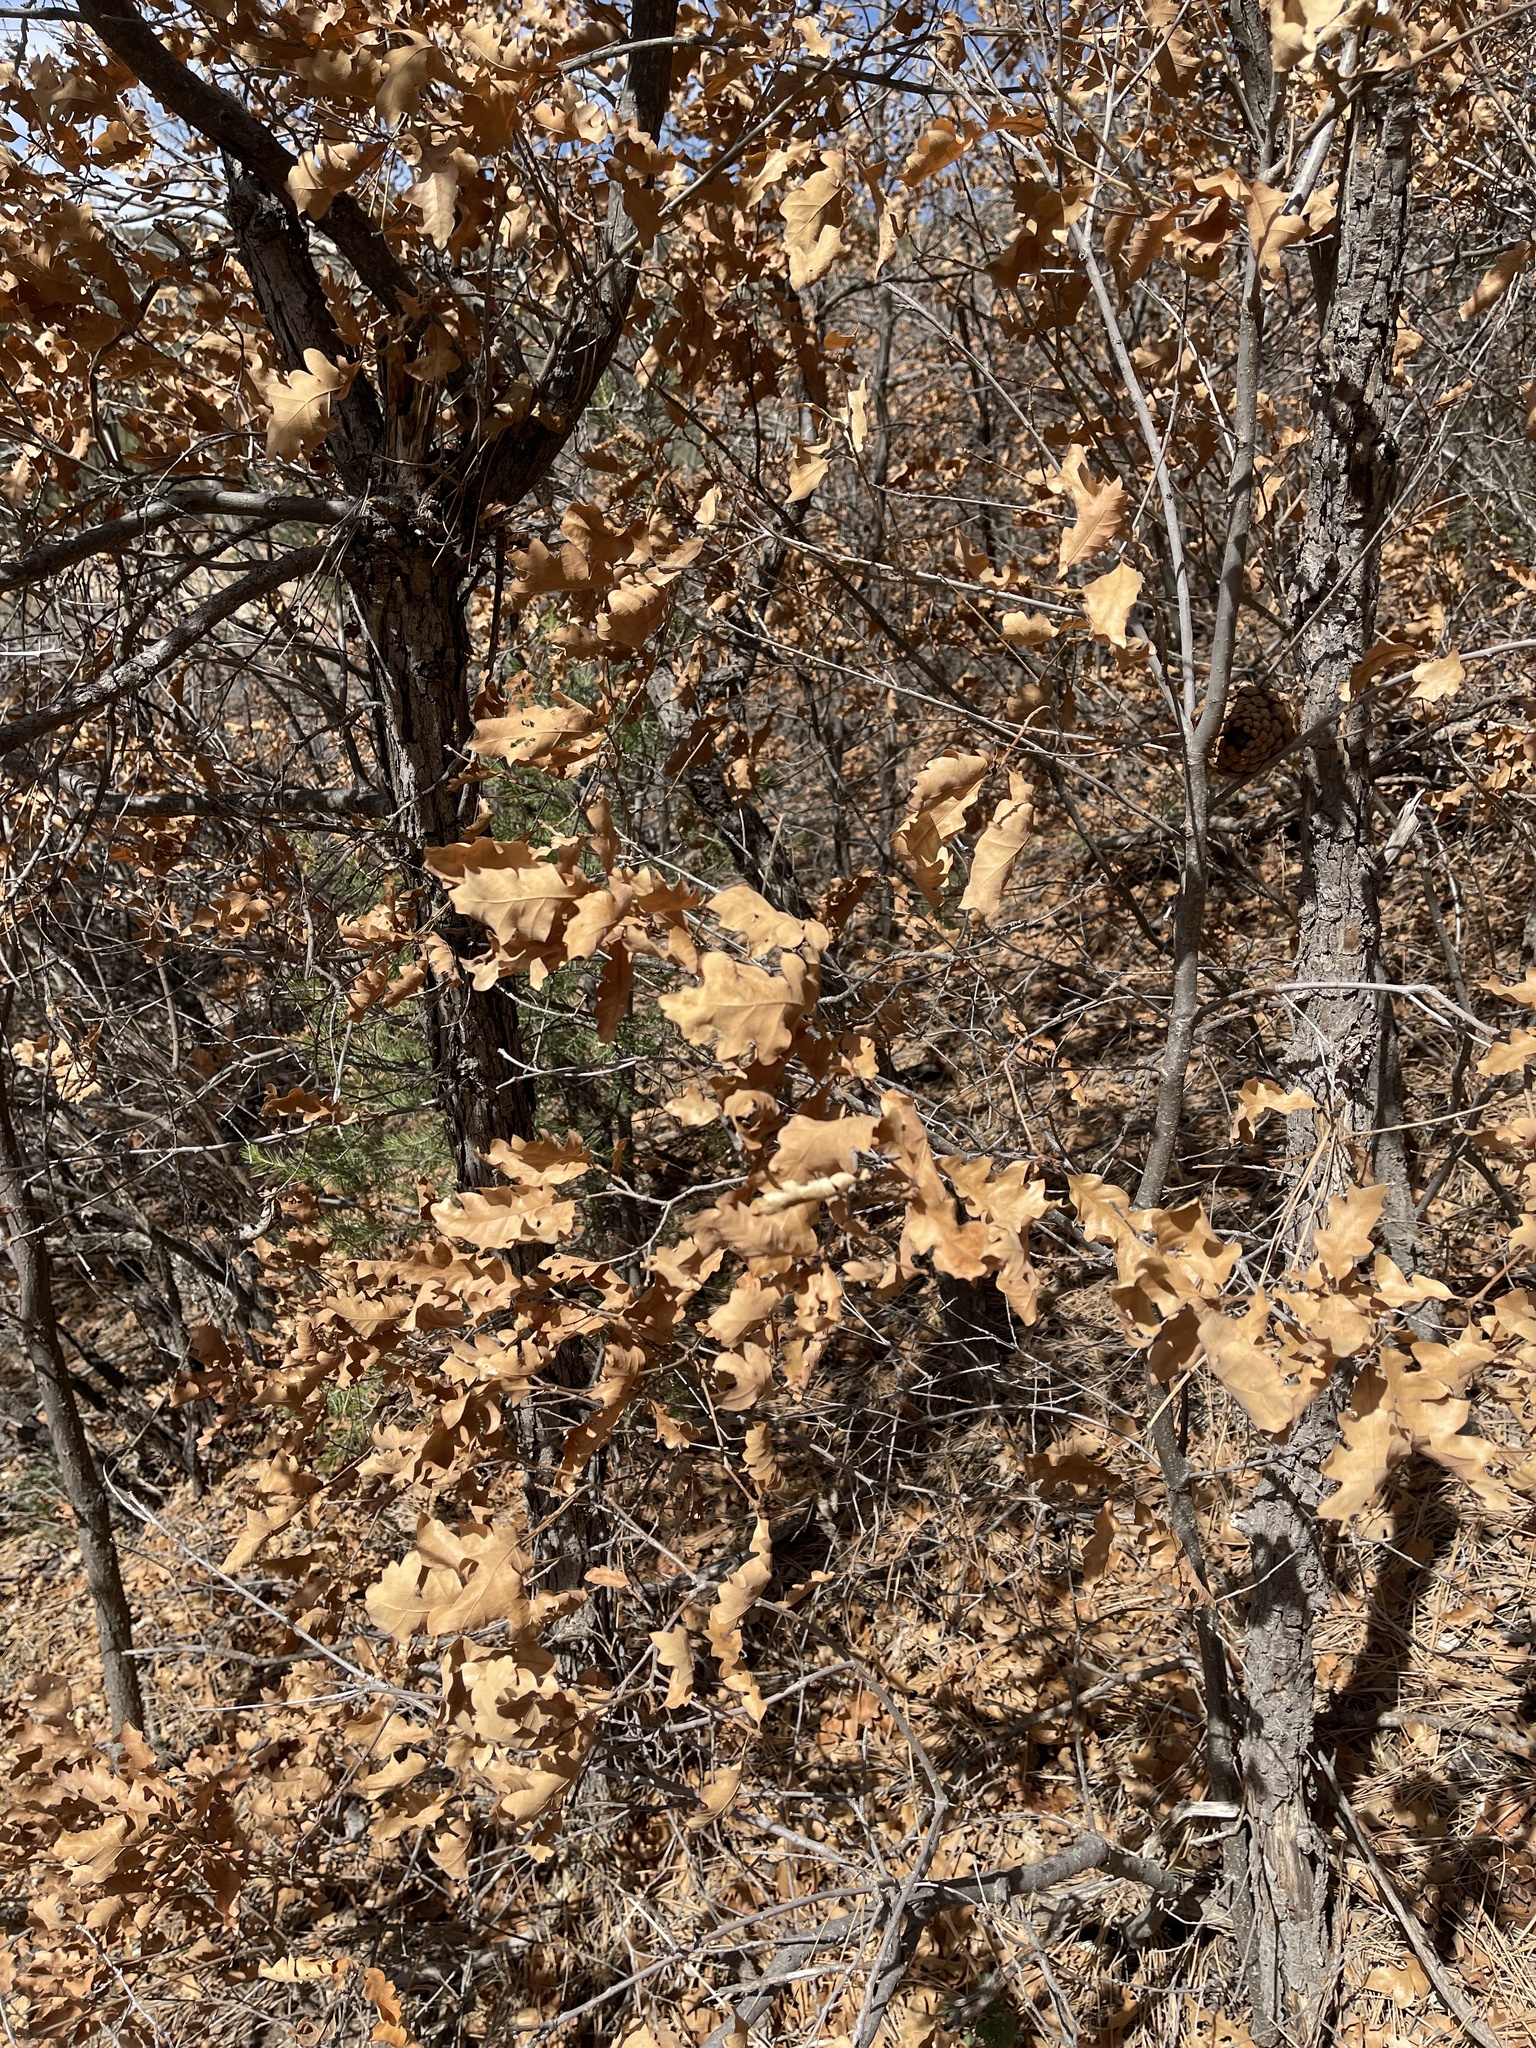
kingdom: Plantae
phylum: Tracheophyta
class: Magnoliopsida
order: Fagales
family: Fagaceae
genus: Quercus
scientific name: Quercus gambelii
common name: Gambel oak
